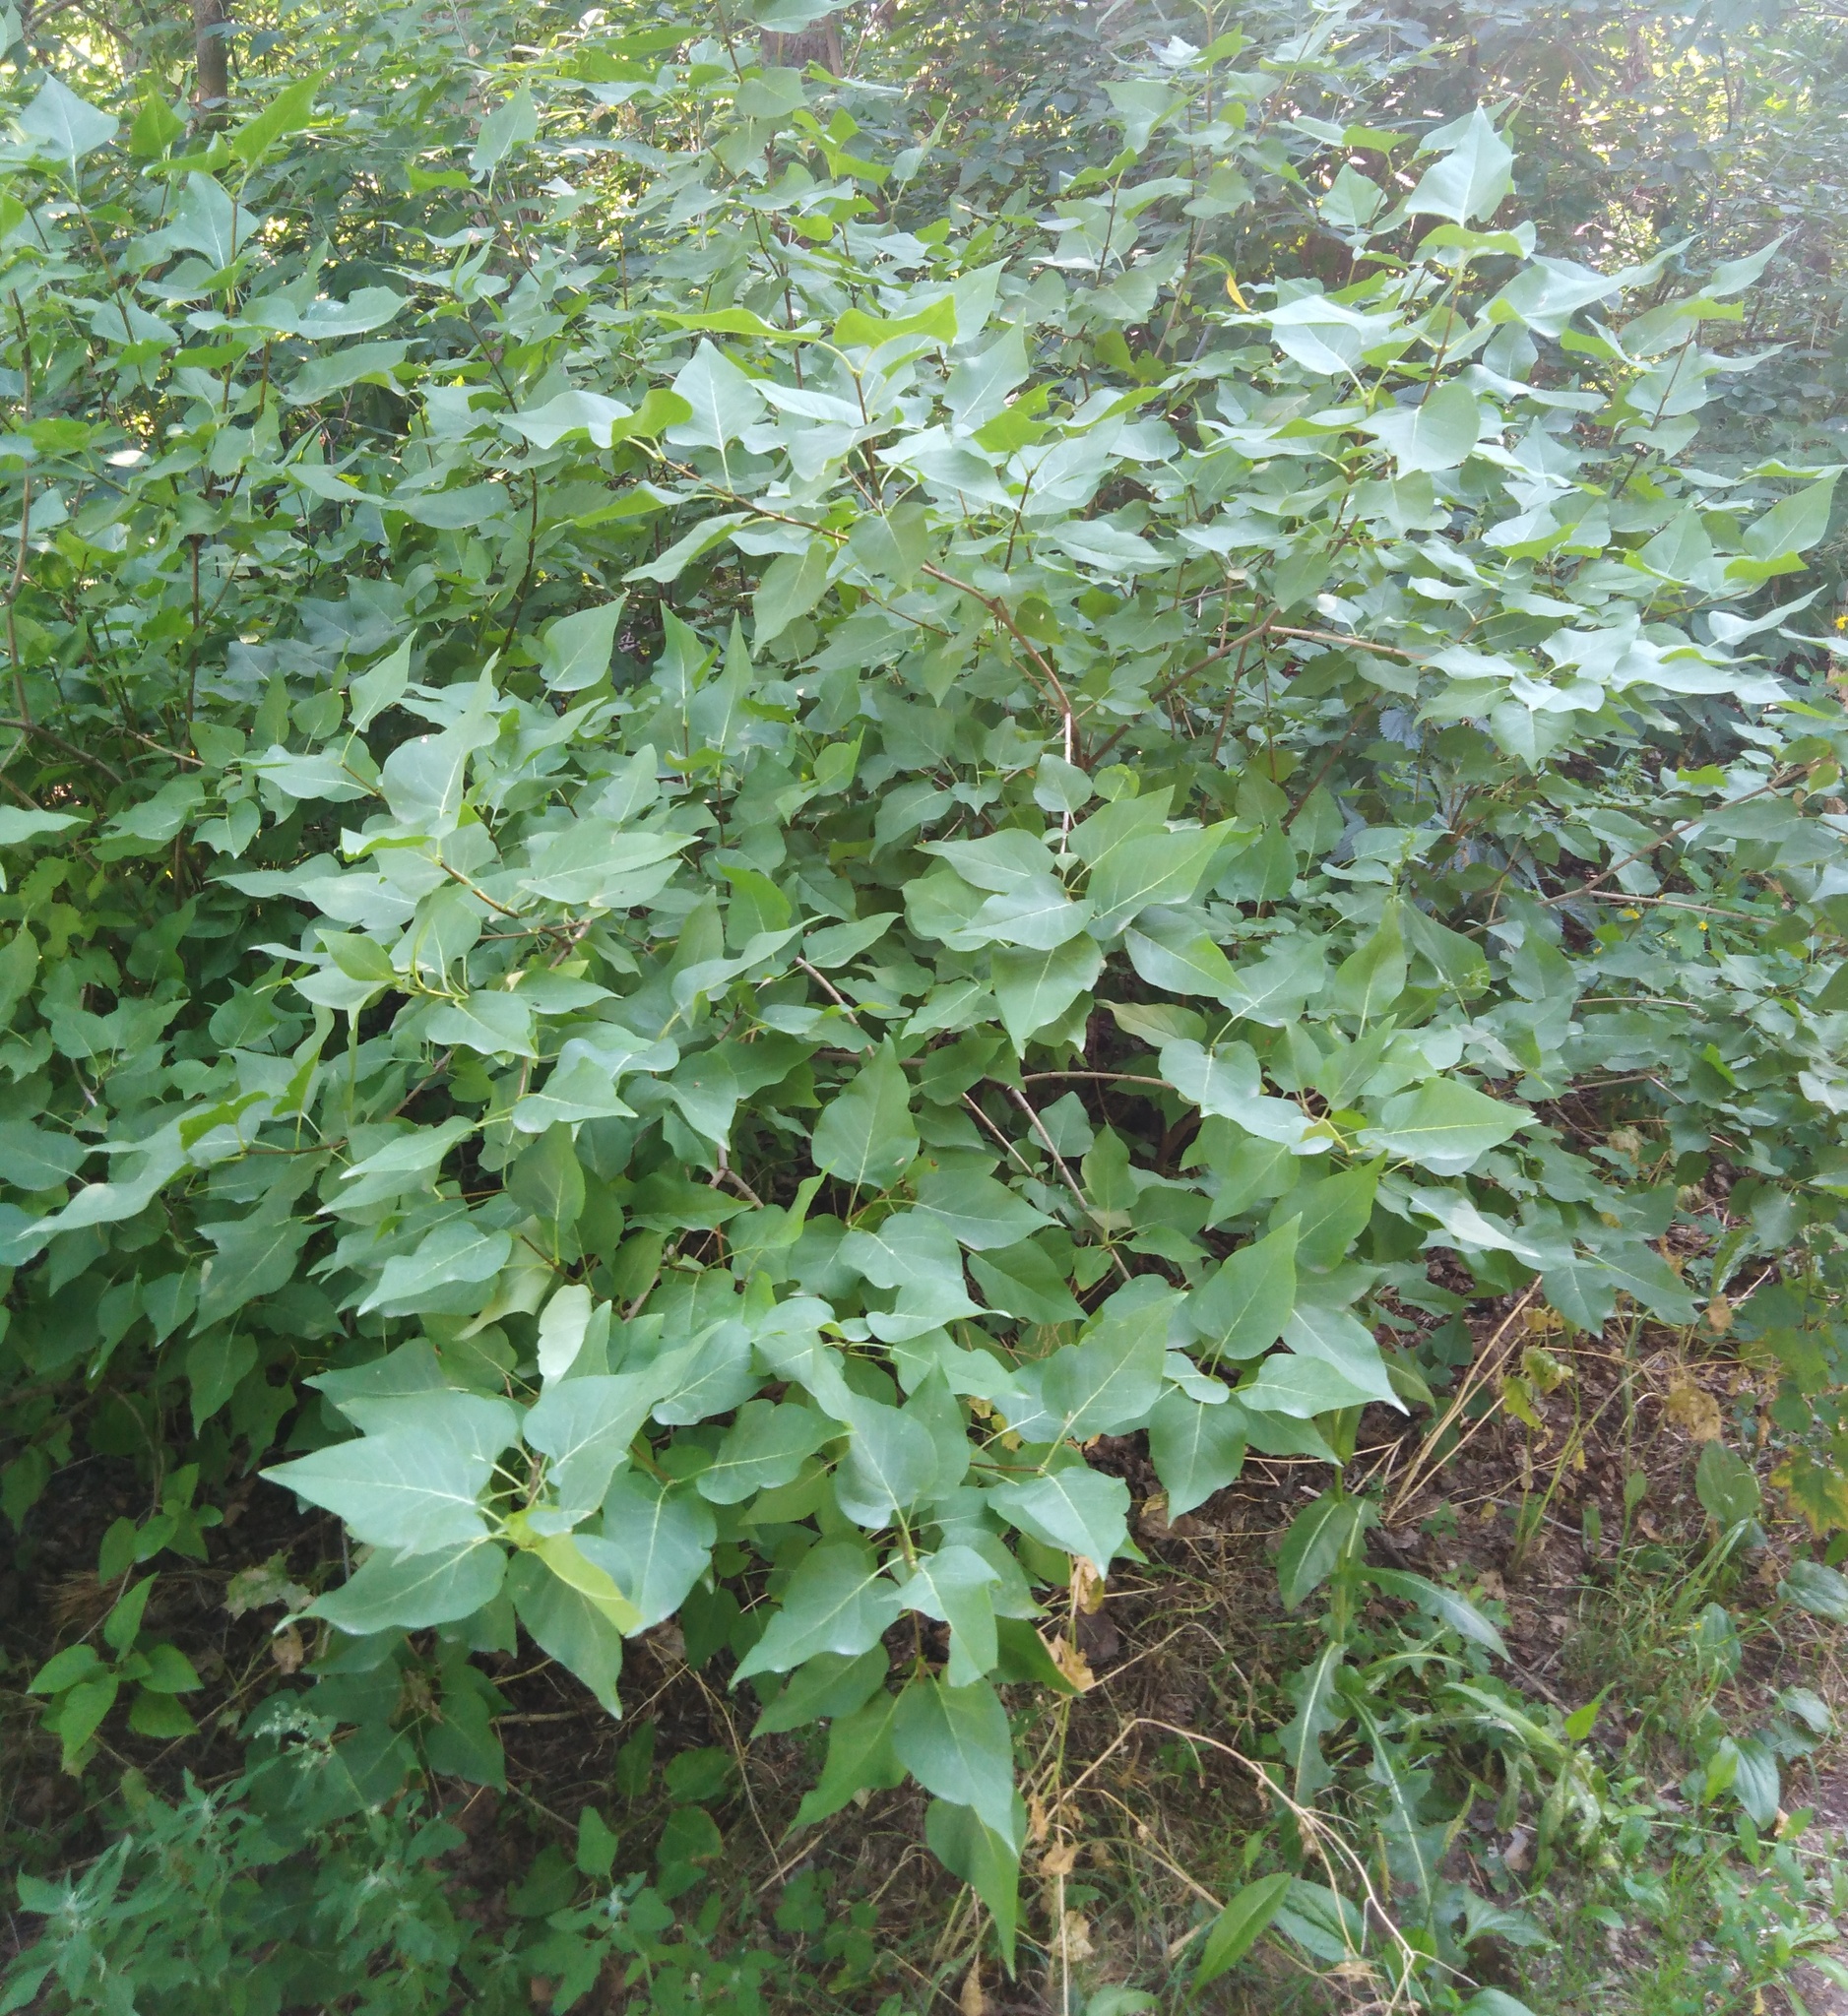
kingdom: Plantae
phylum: Tracheophyta
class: Magnoliopsida
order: Lamiales
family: Oleaceae
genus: Syringa
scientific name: Syringa vulgaris
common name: Common lilac
